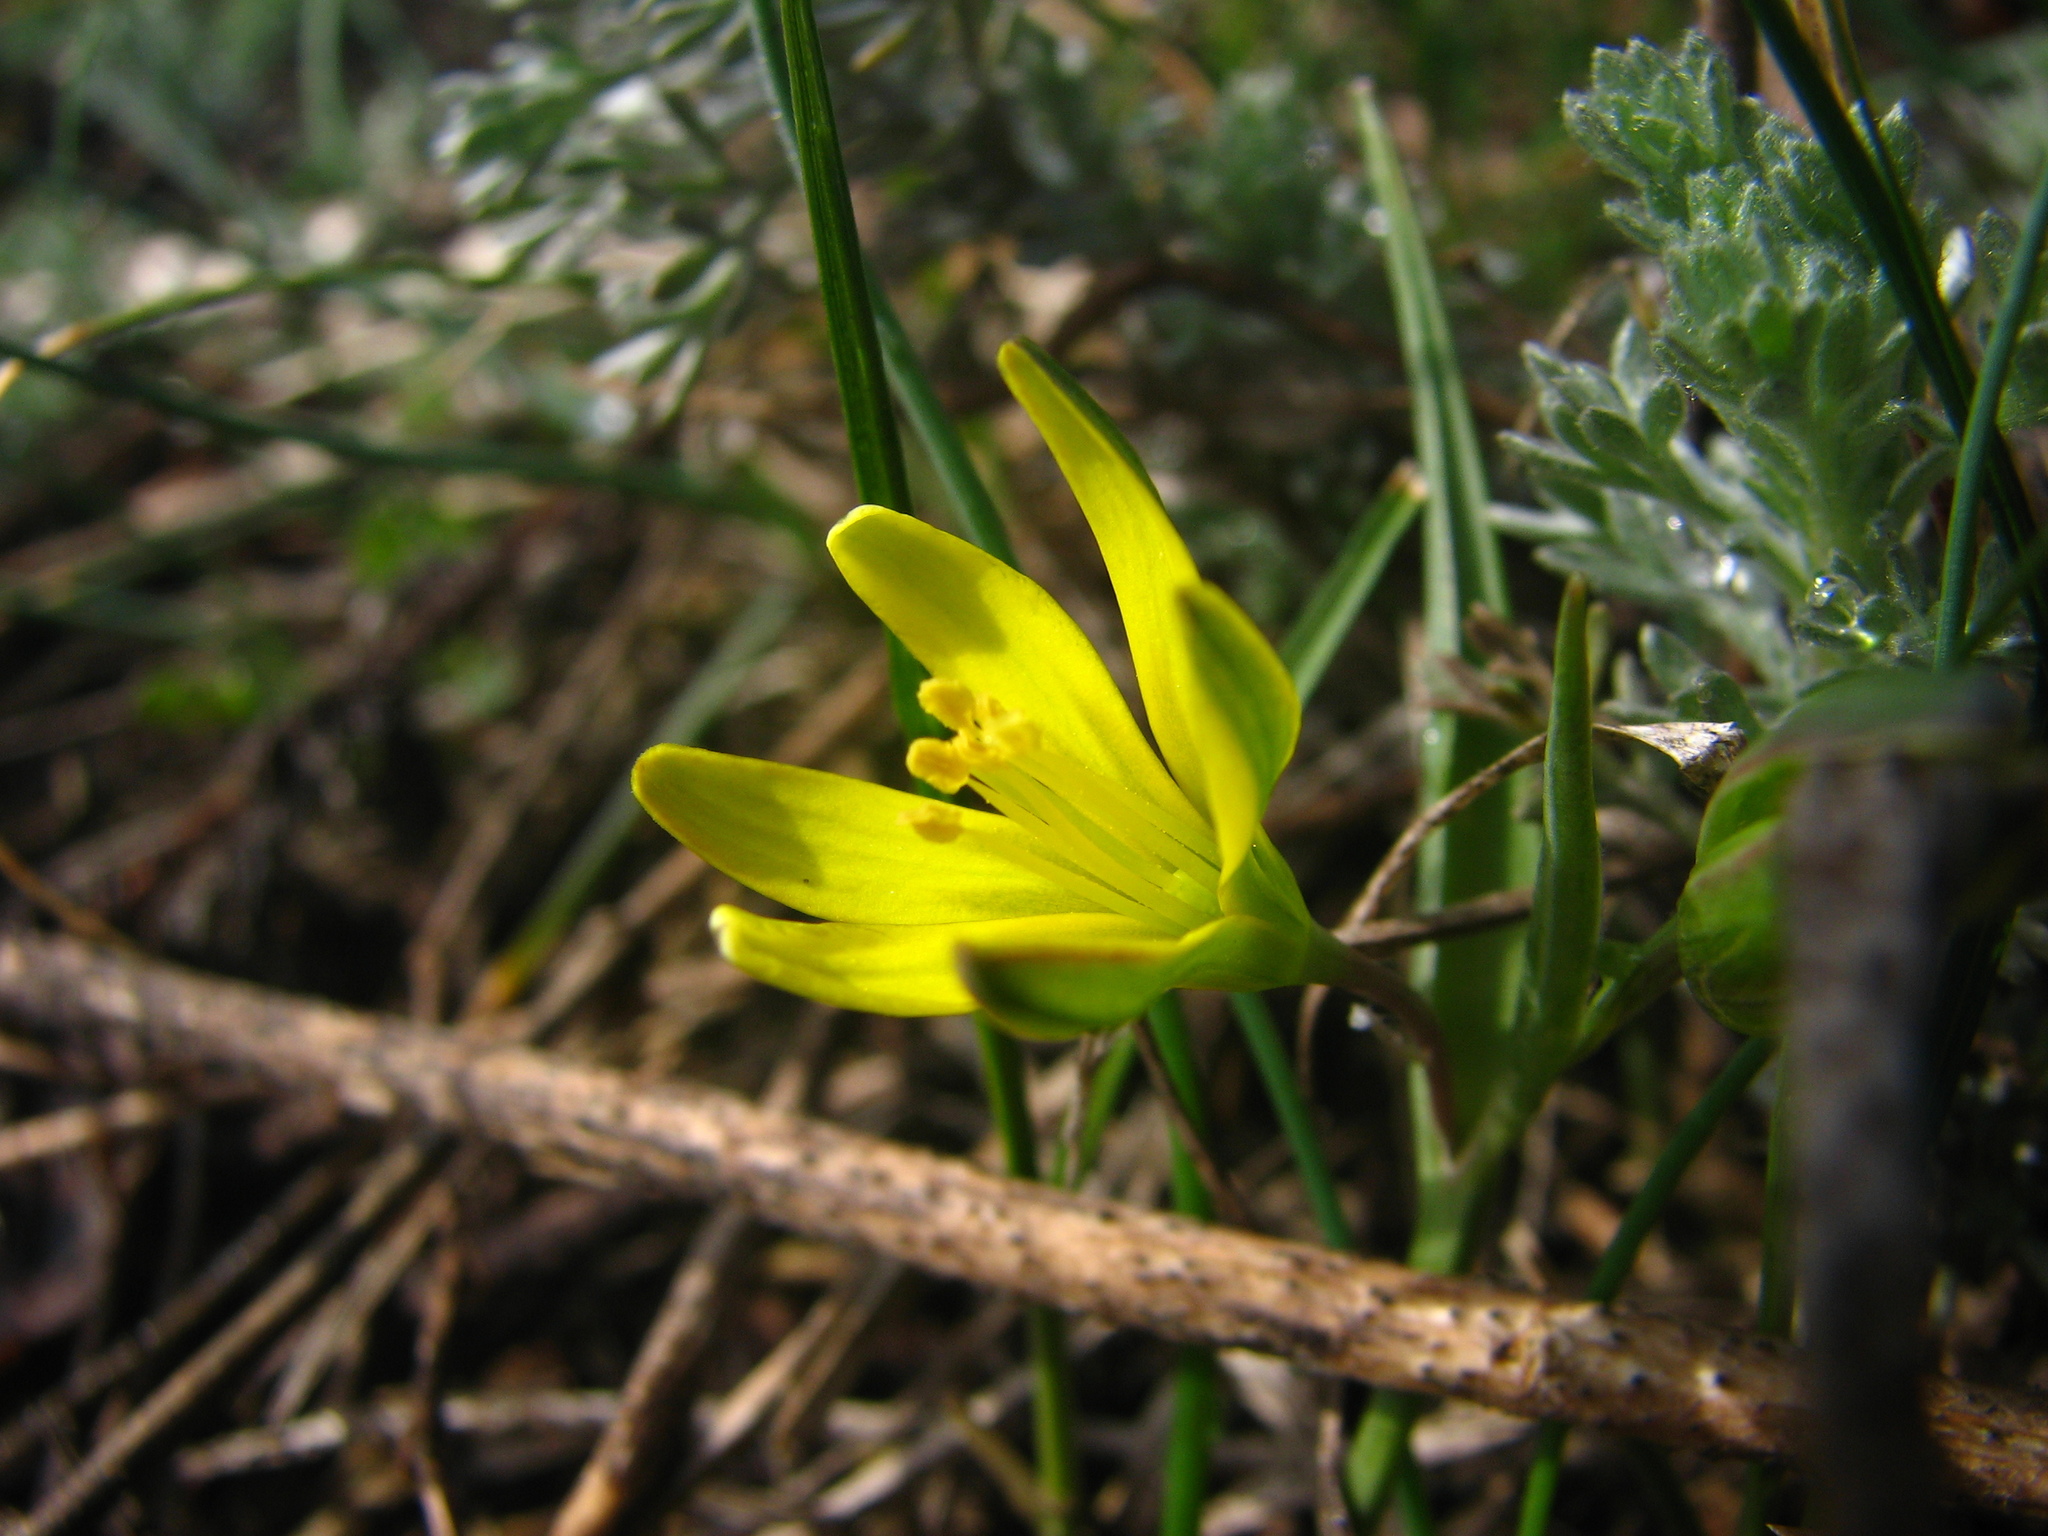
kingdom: Plantae
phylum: Tracheophyta
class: Liliopsida
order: Liliales
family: Liliaceae
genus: Gagea
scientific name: Gagea pusilla
